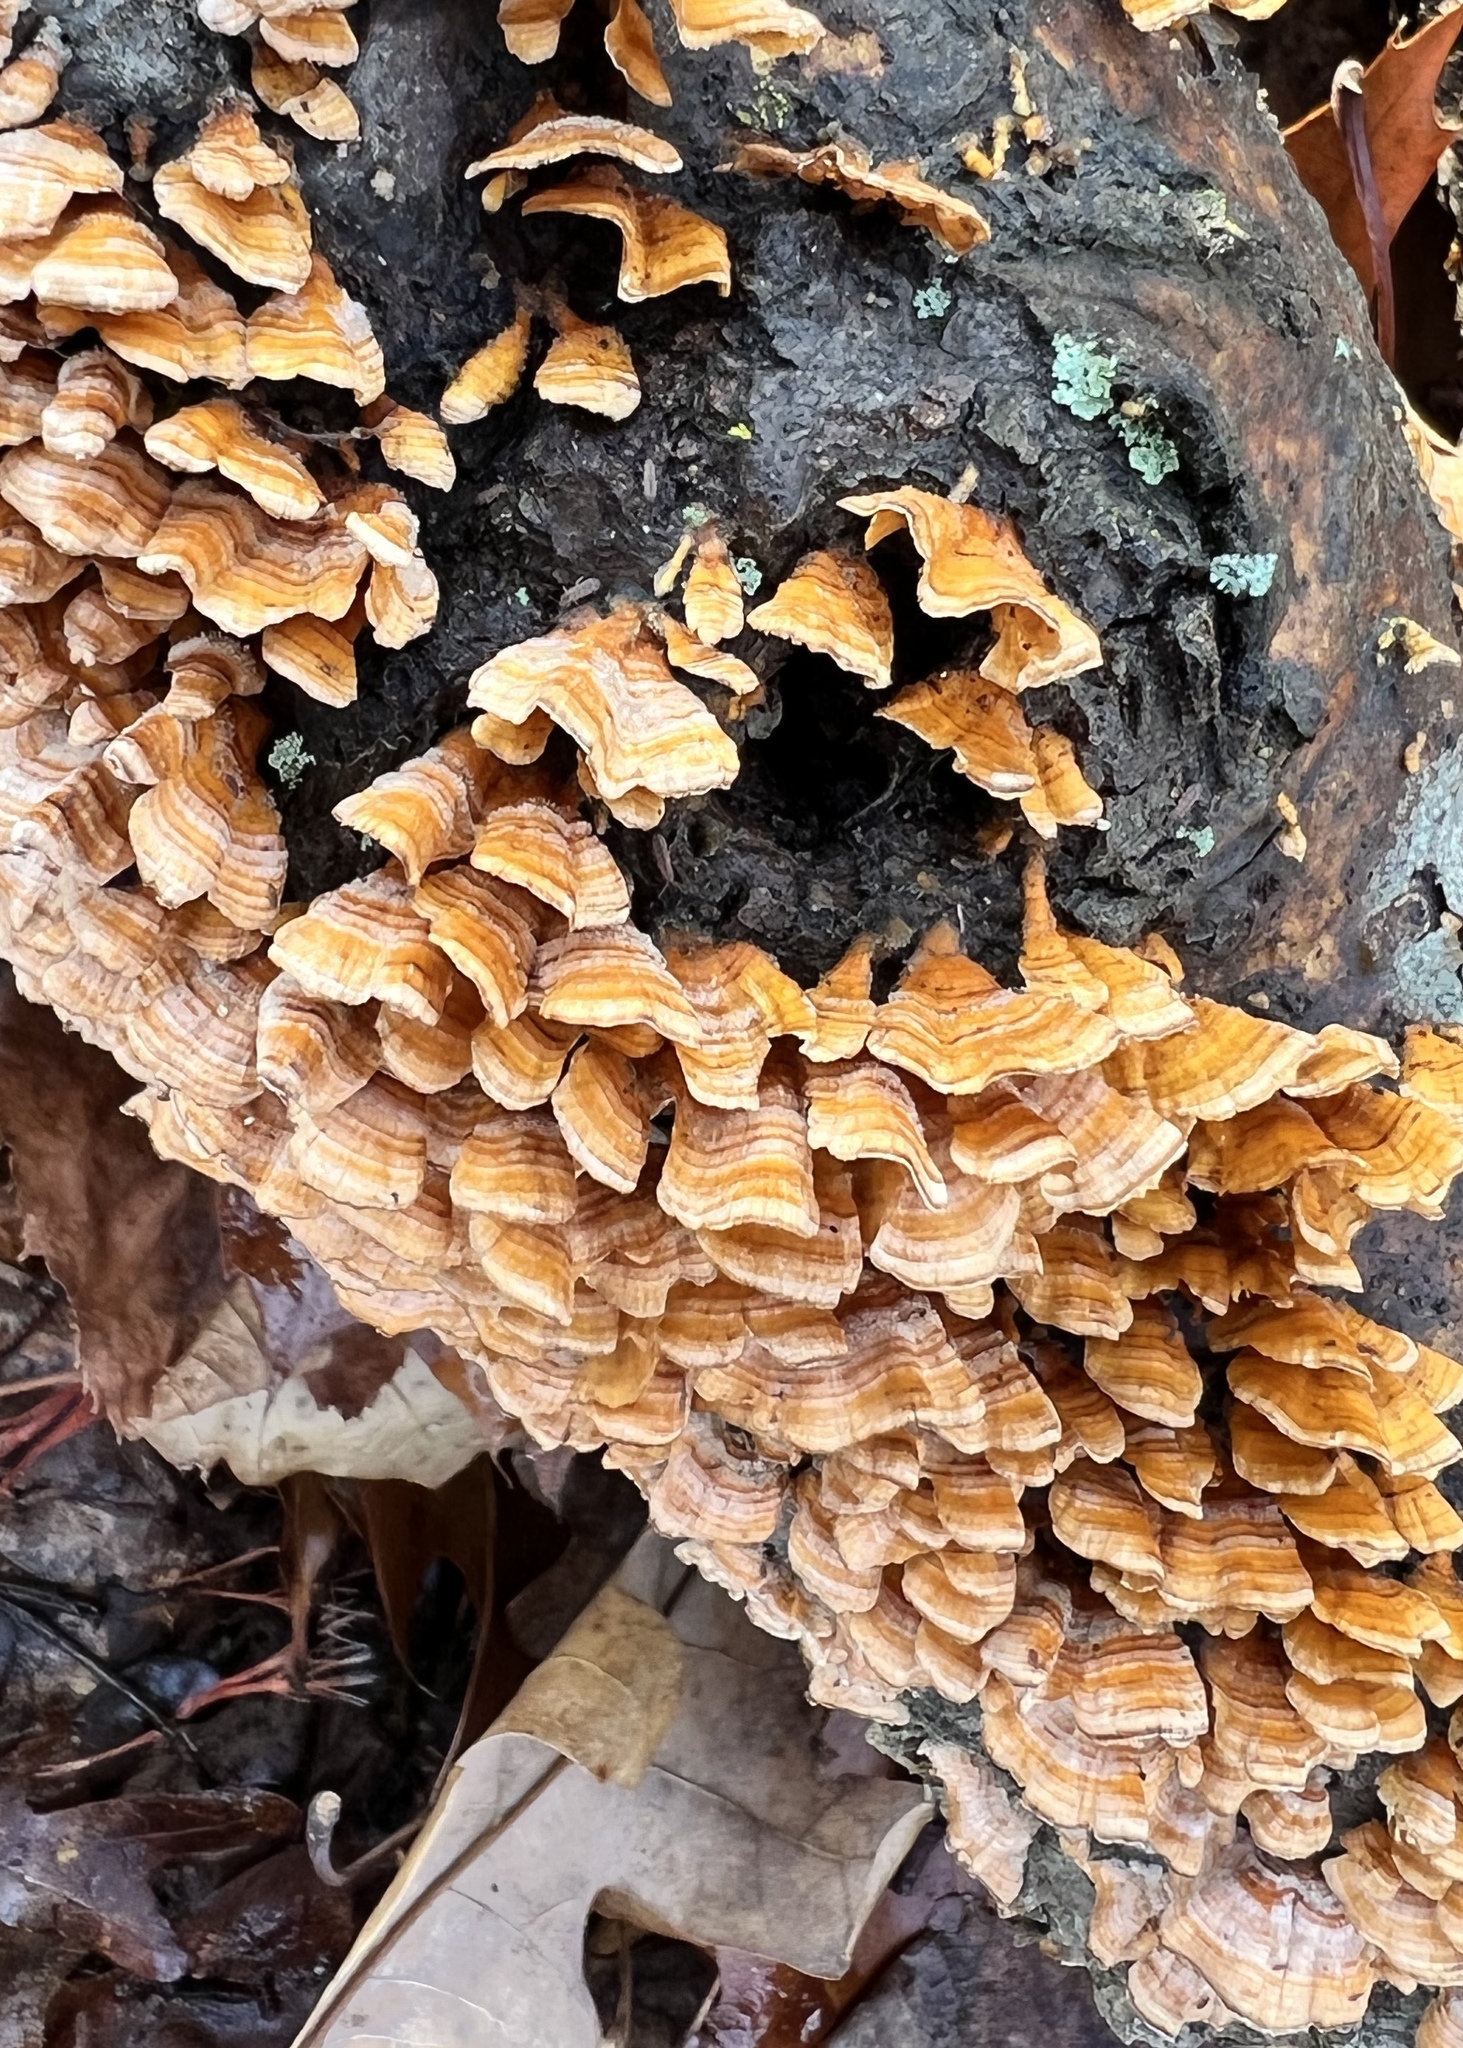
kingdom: Fungi
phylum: Basidiomycota
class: Agaricomycetes
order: Russulales
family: Stereaceae
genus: Stereum
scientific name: Stereum complicatum
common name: Crowded parchment
